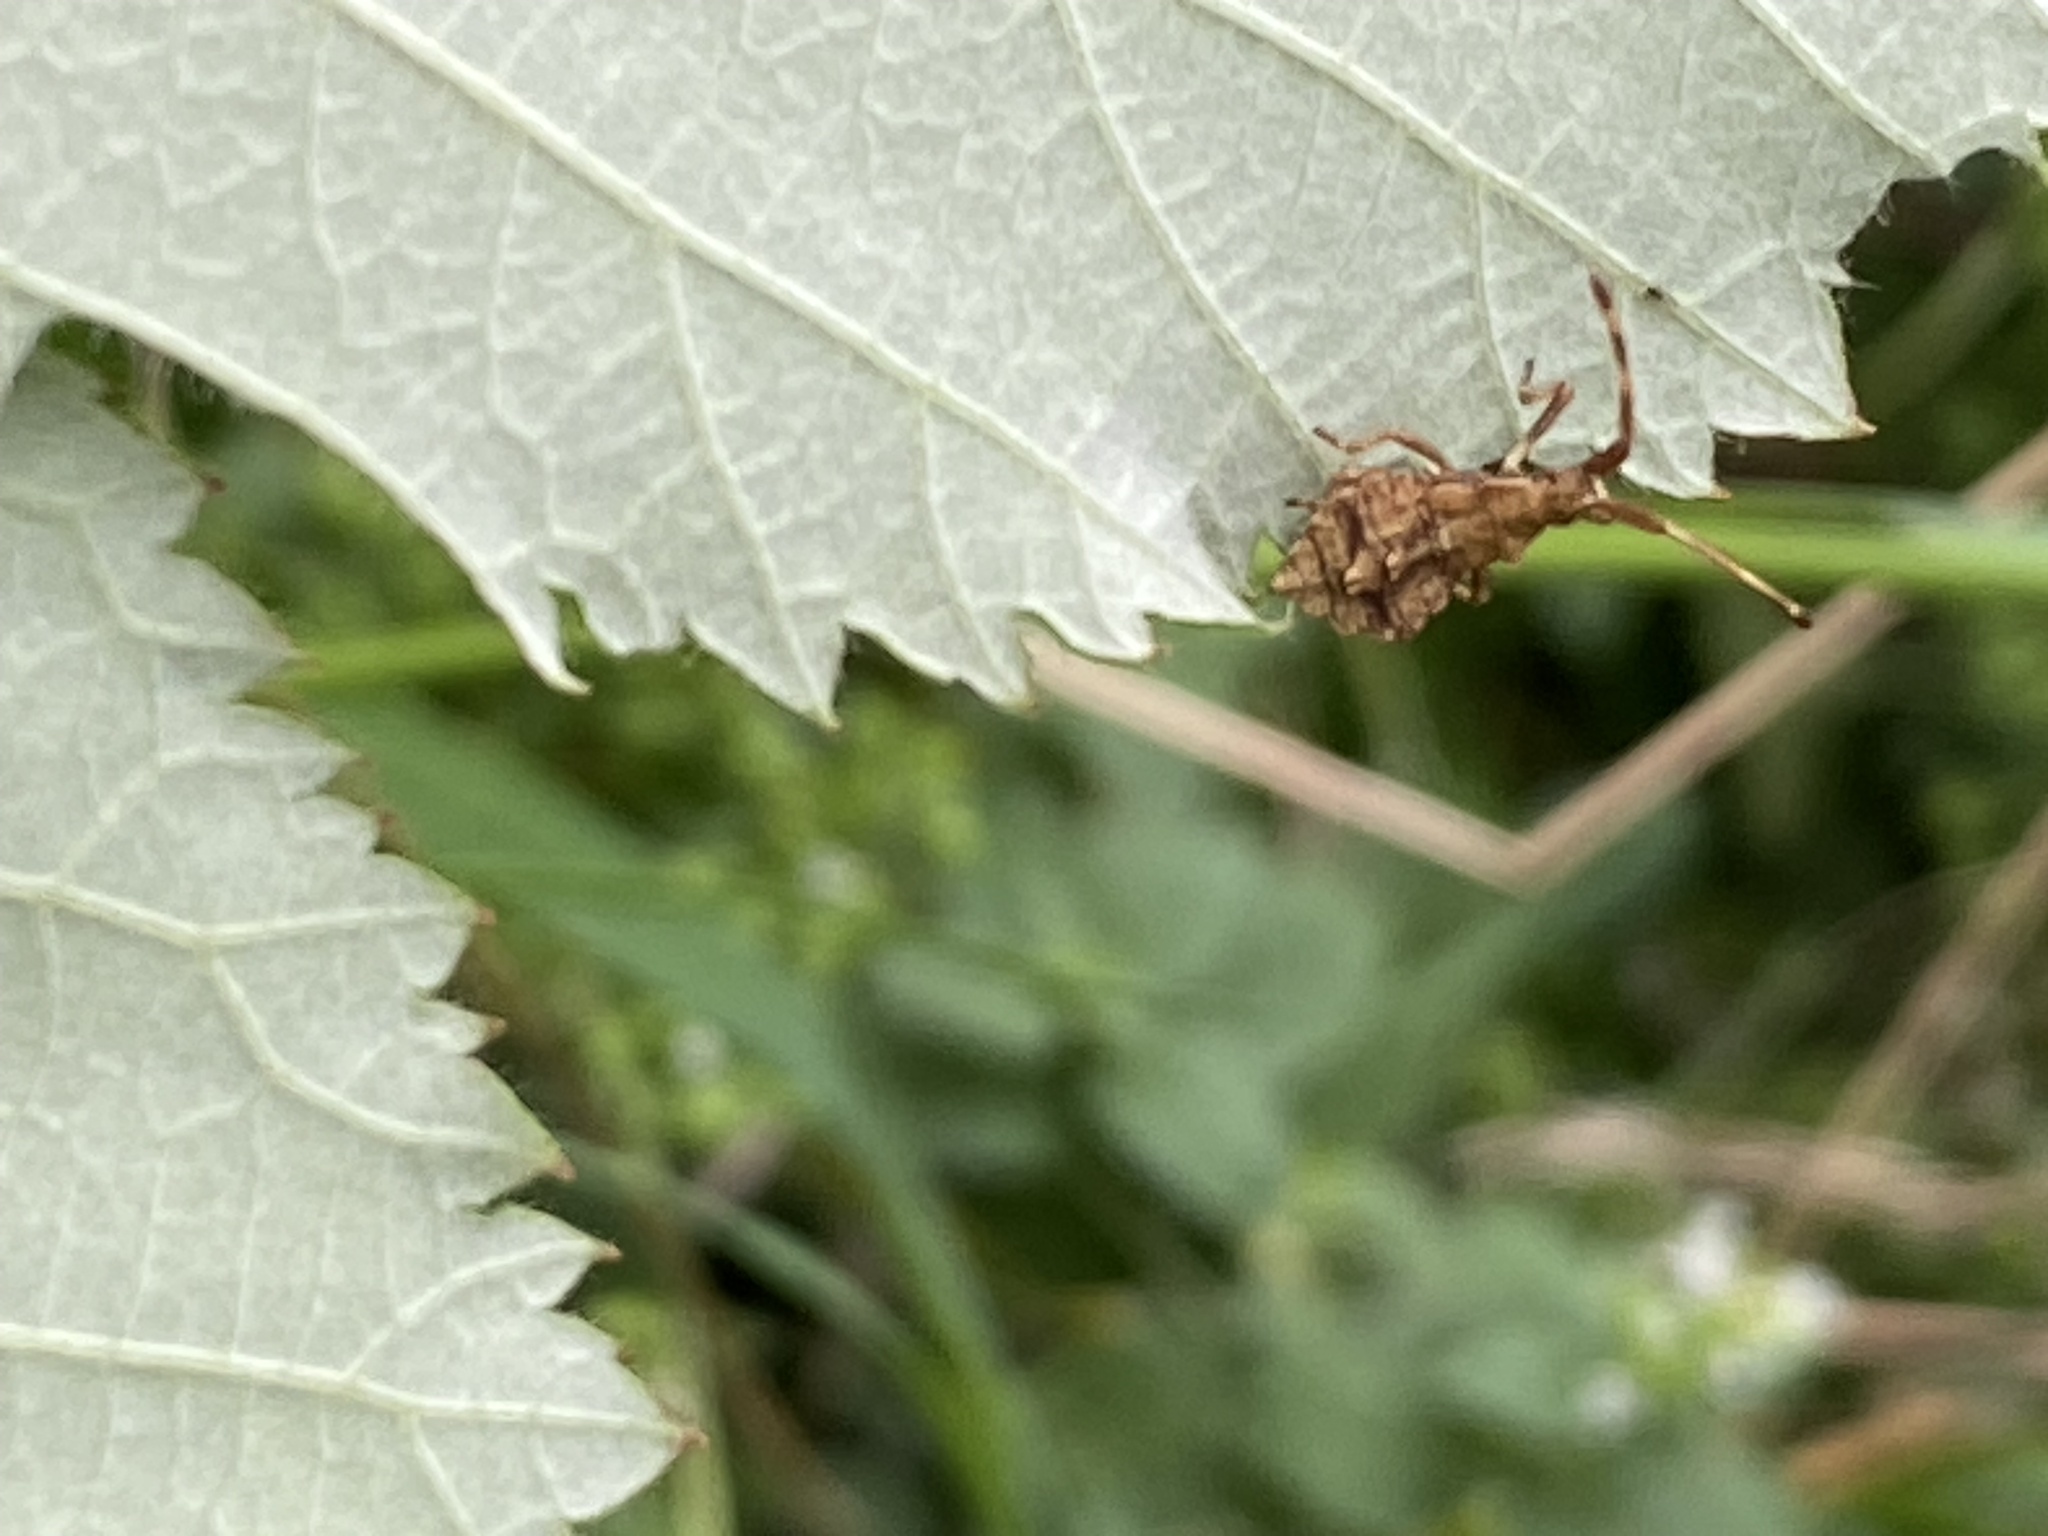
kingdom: Animalia
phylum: Arthropoda
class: Insecta
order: Hemiptera
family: Coreidae
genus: Coreus
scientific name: Coreus marginatus
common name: Dock bug
